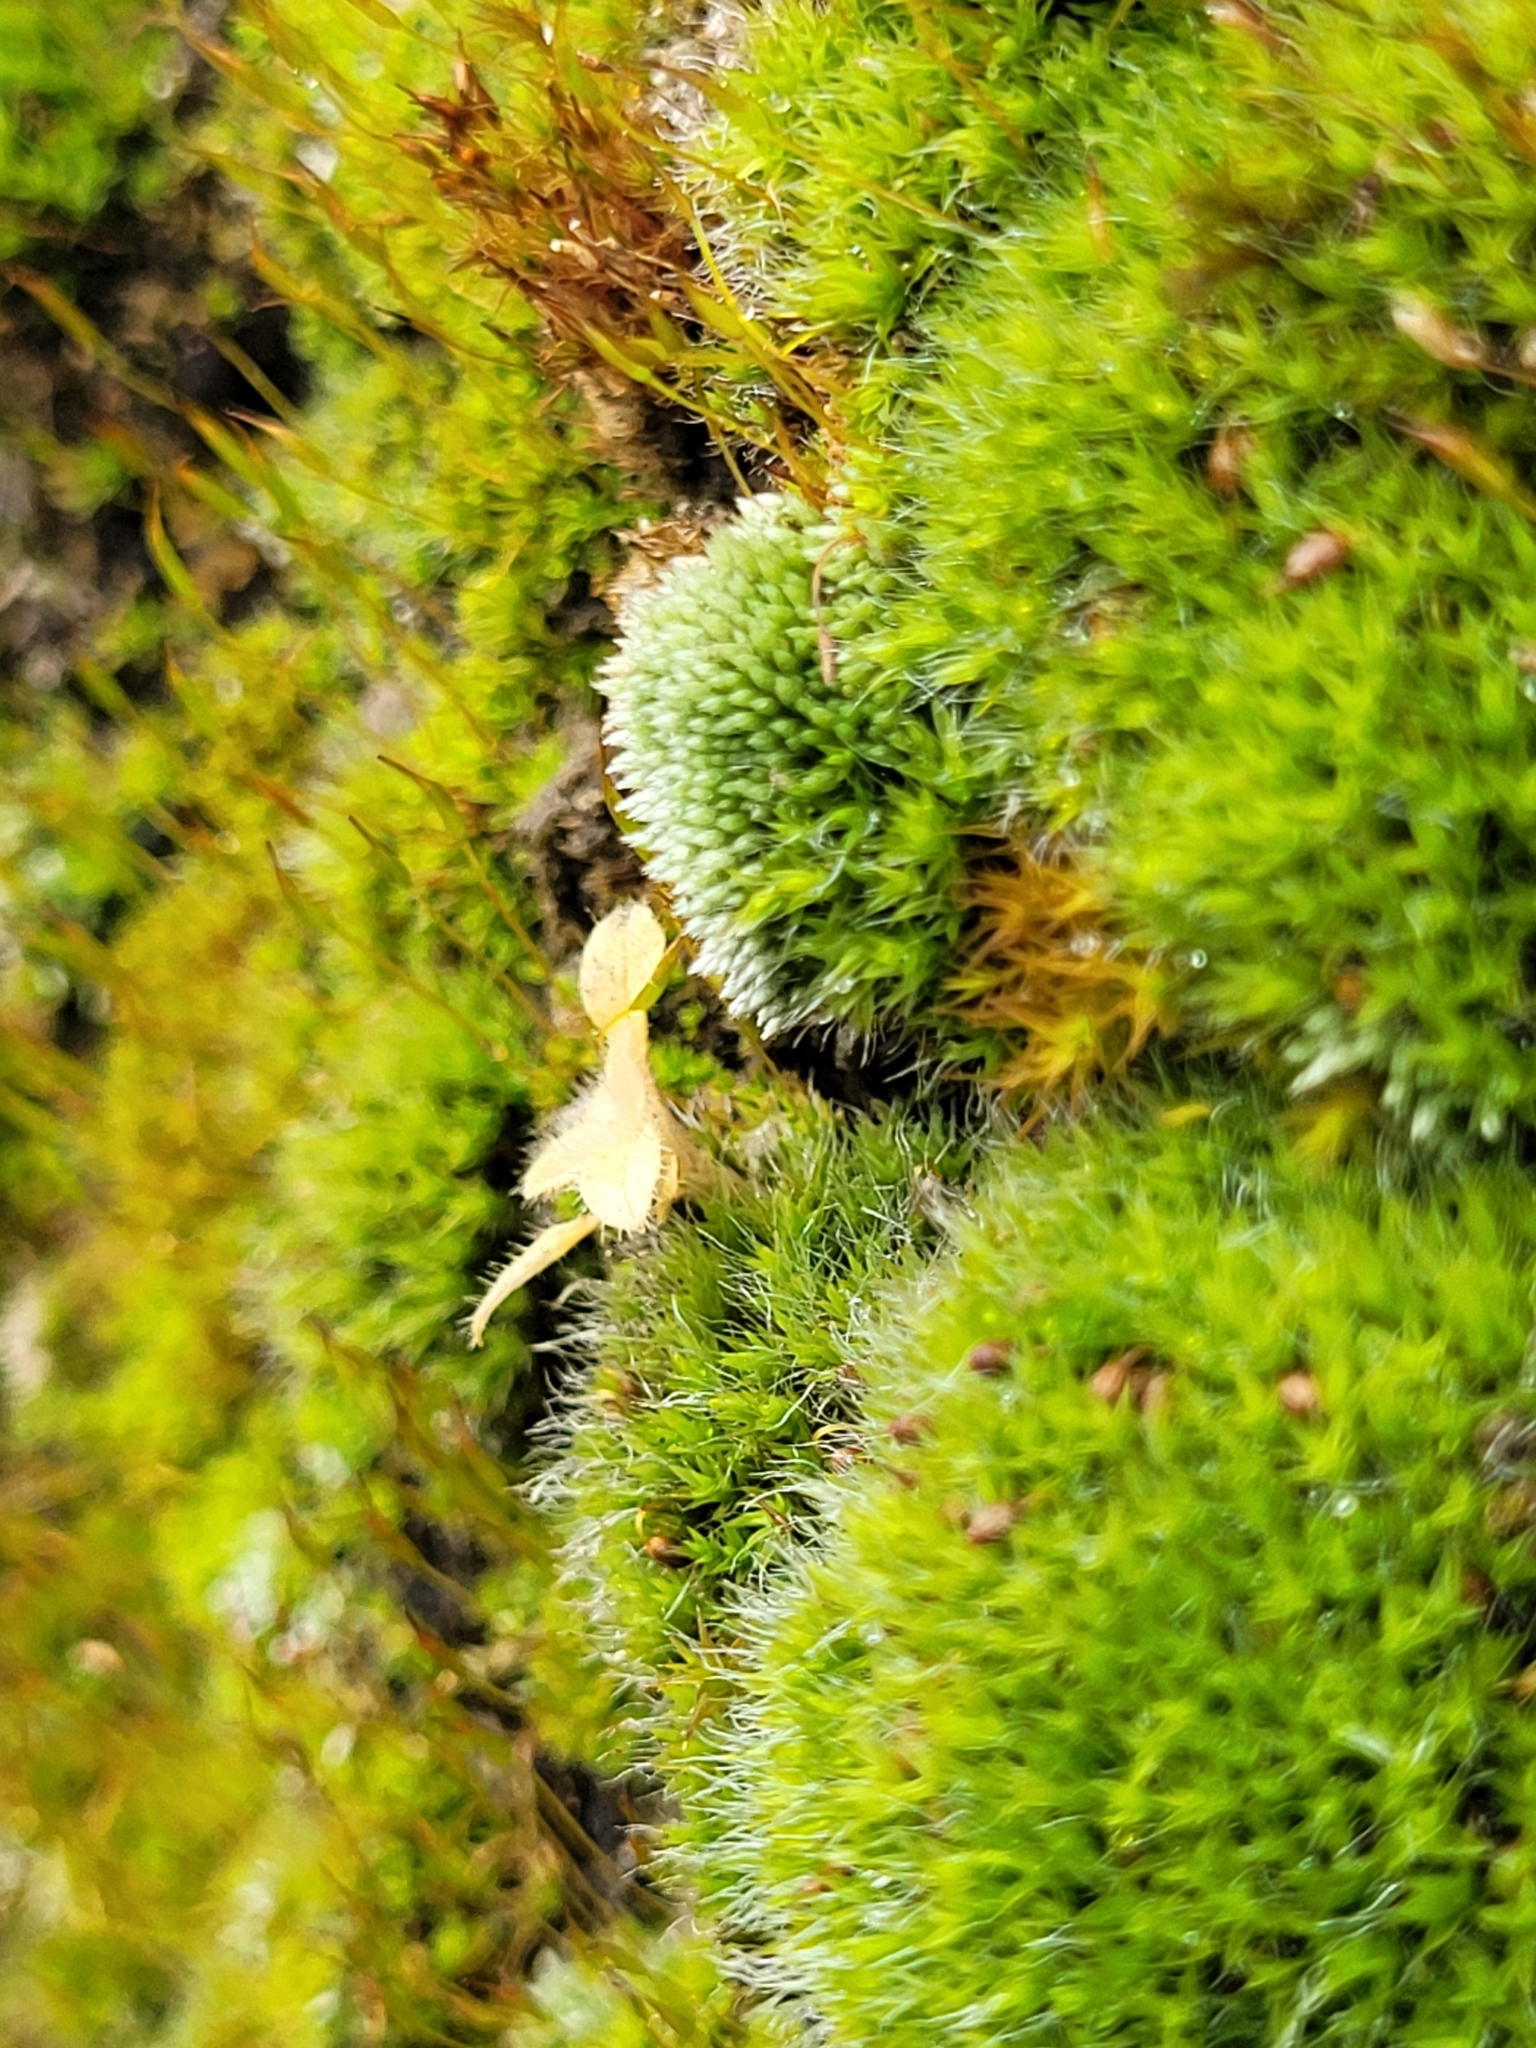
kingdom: Plantae
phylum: Bryophyta
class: Bryopsida
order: Bryales
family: Bryaceae
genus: Bryum
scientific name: Bryum argenteum
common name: Silver-moss
